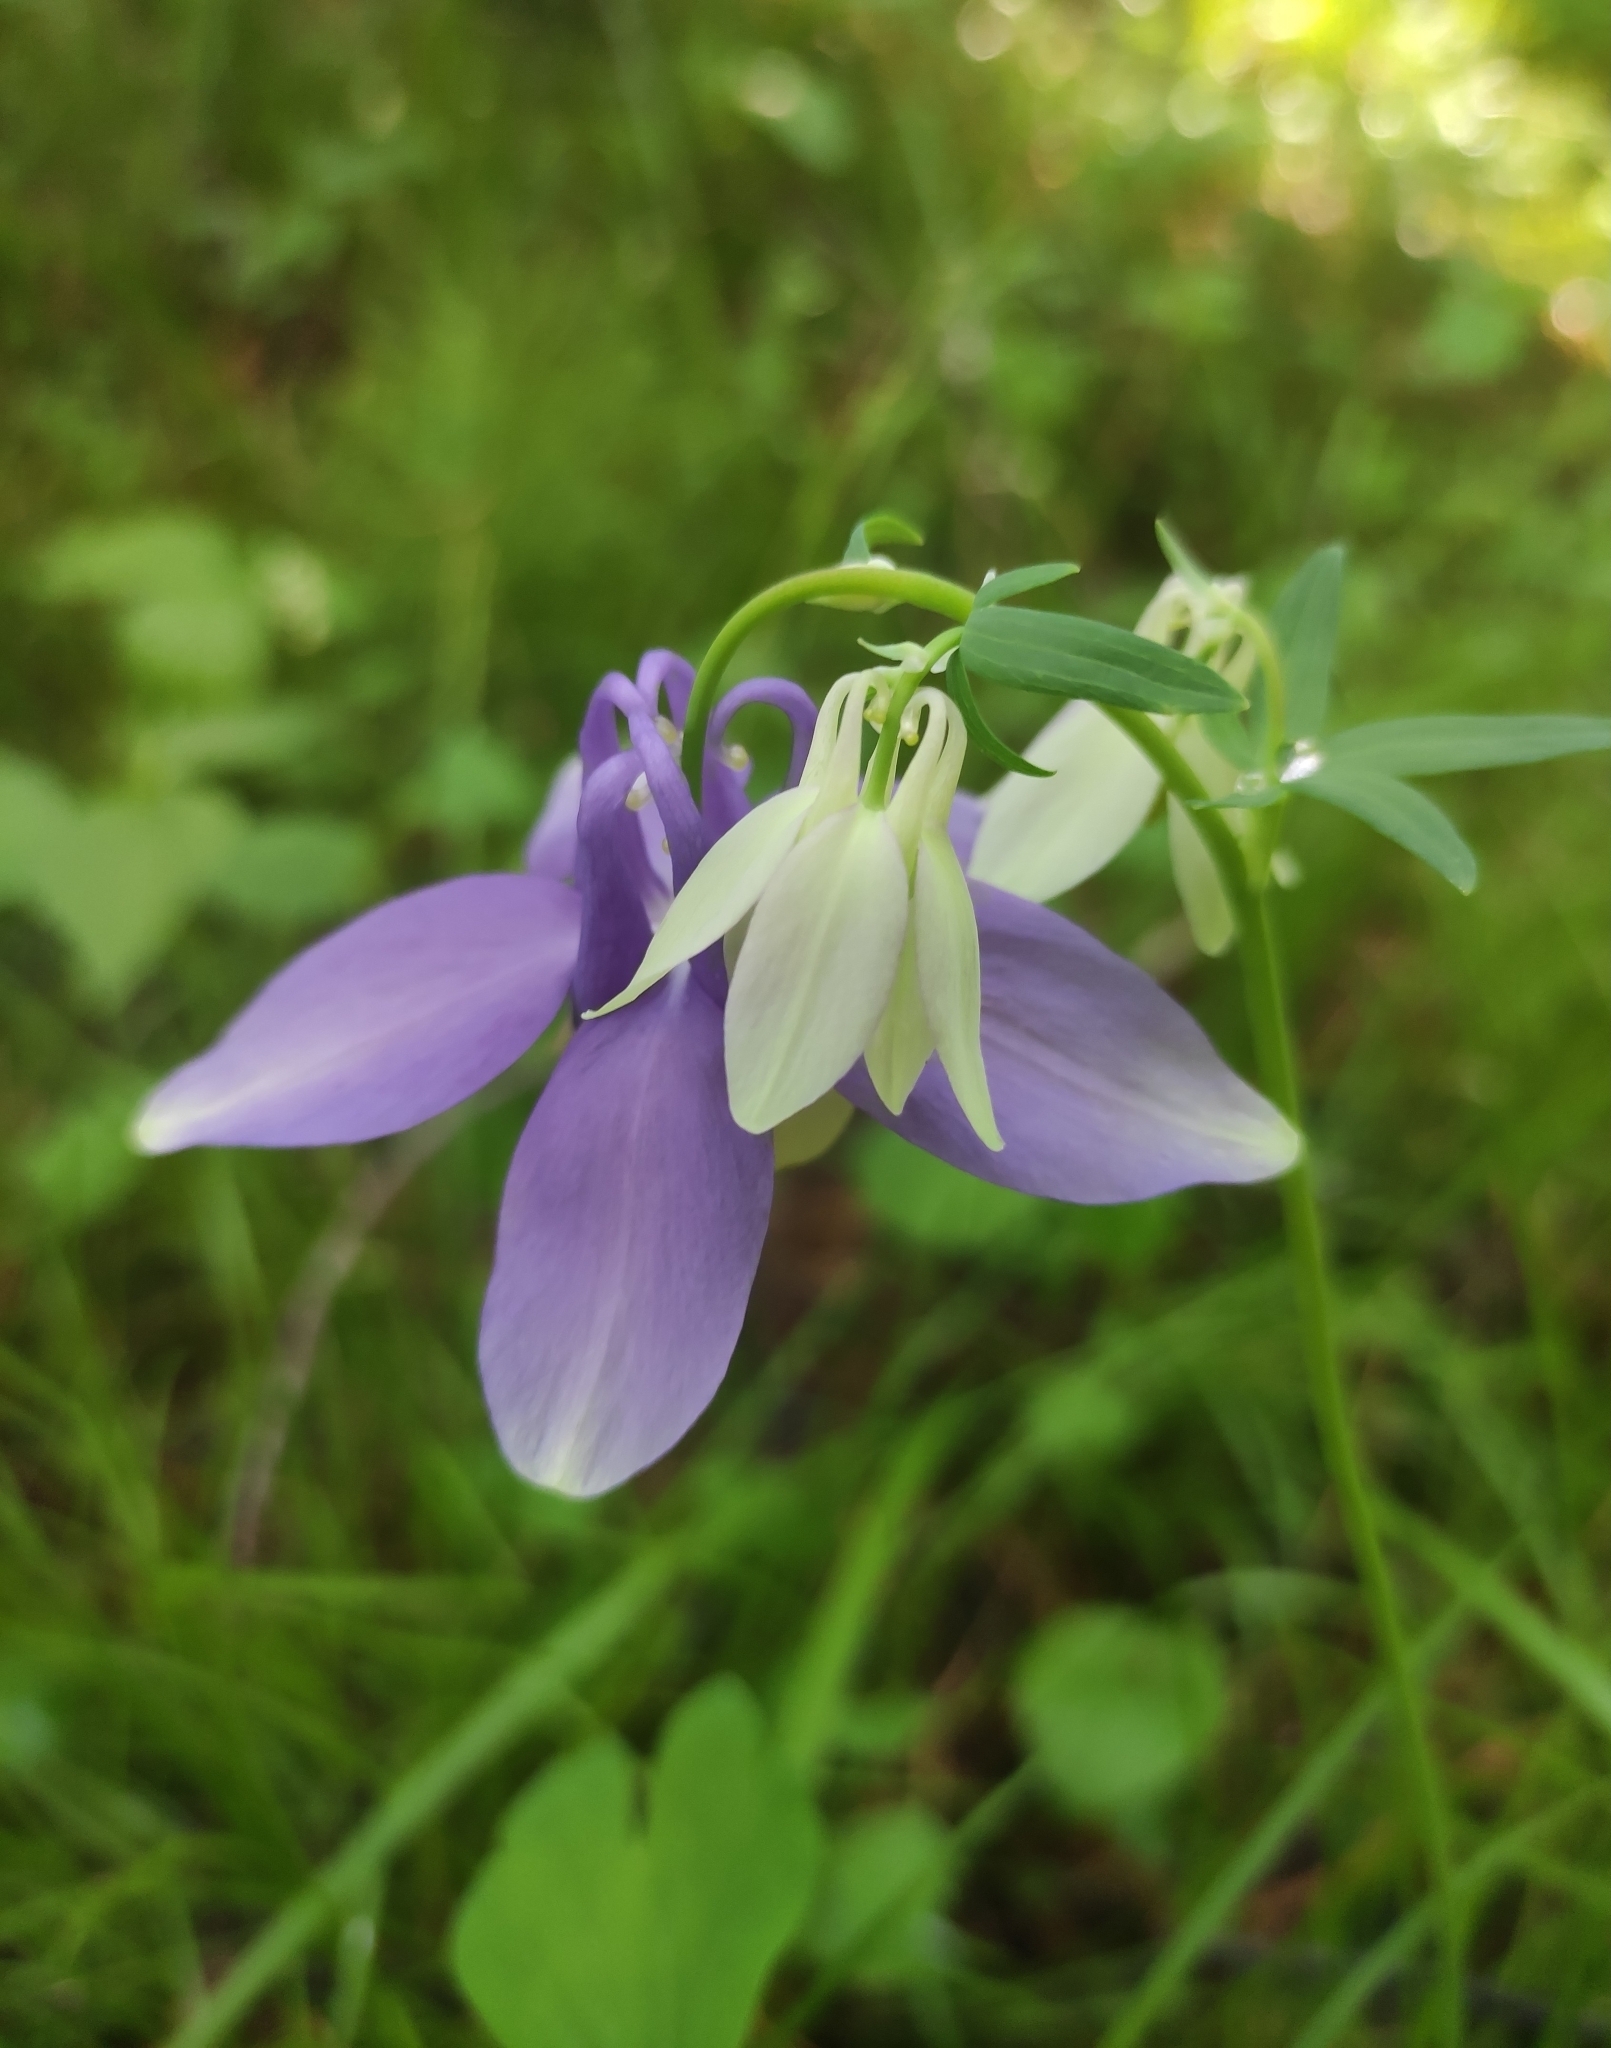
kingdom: Plantae
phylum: Tracheophyta
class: Magnoliopsida
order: Ranunculales
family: Ranunculaceae
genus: Aquilegia
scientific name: Aquilegia sibirica
